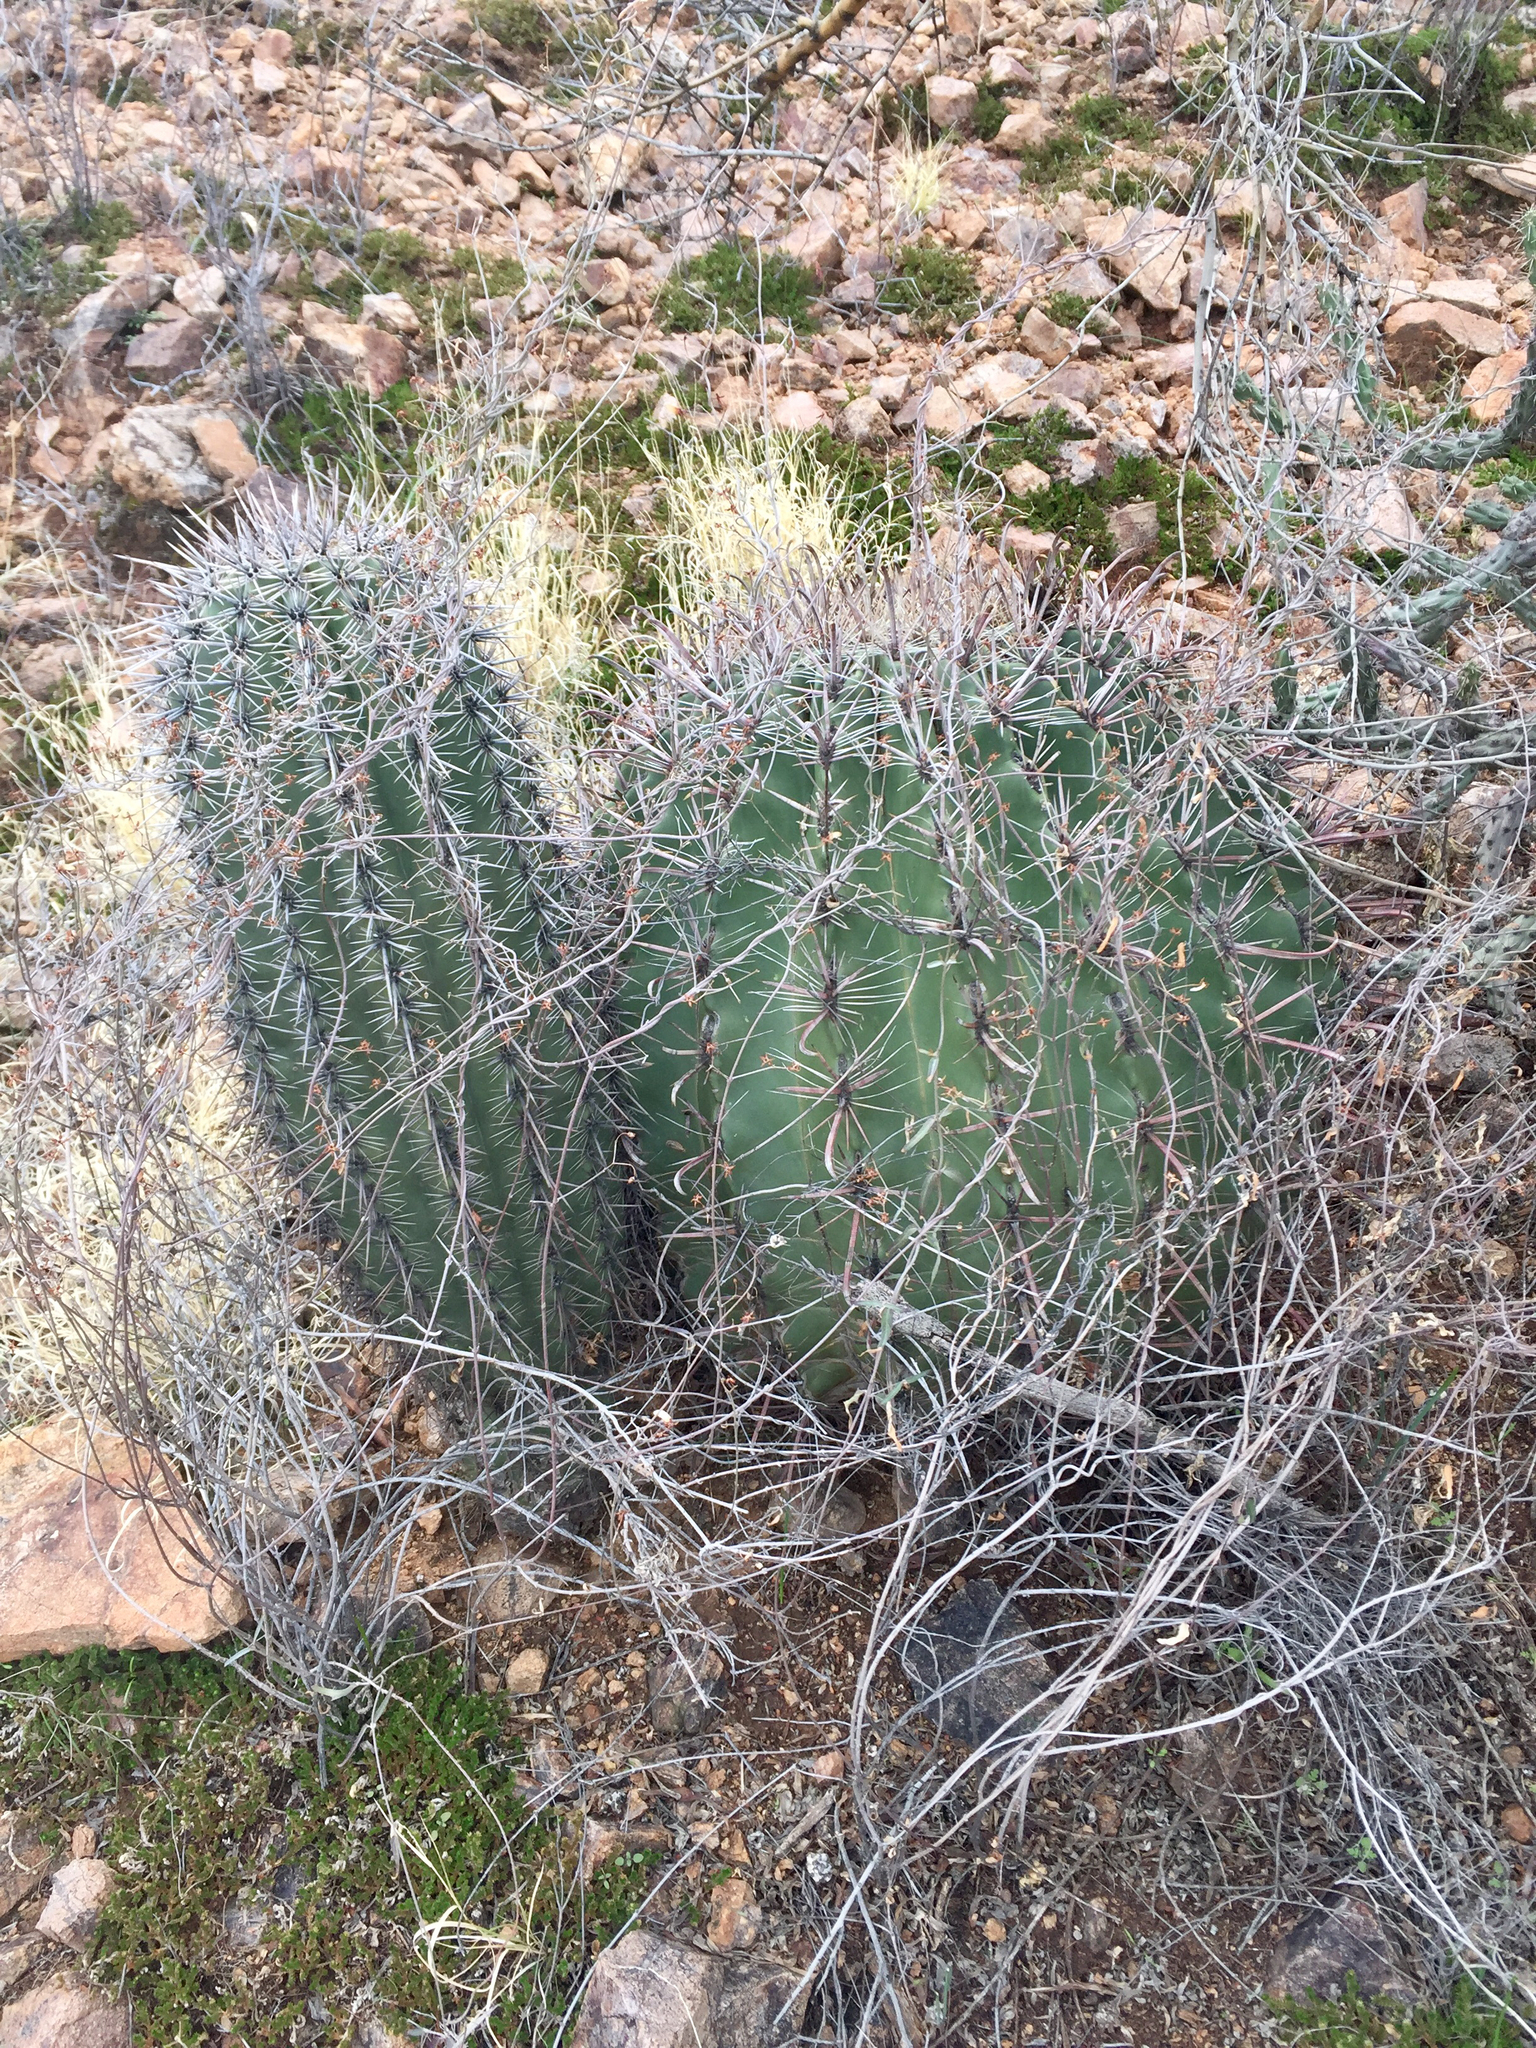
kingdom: Plantae
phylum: Tracheophyta
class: Magnoliopsida
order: Caryophyllales
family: Cactaceae
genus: Carnegiea
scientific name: Carnegiea gigantea
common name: Saguaro
